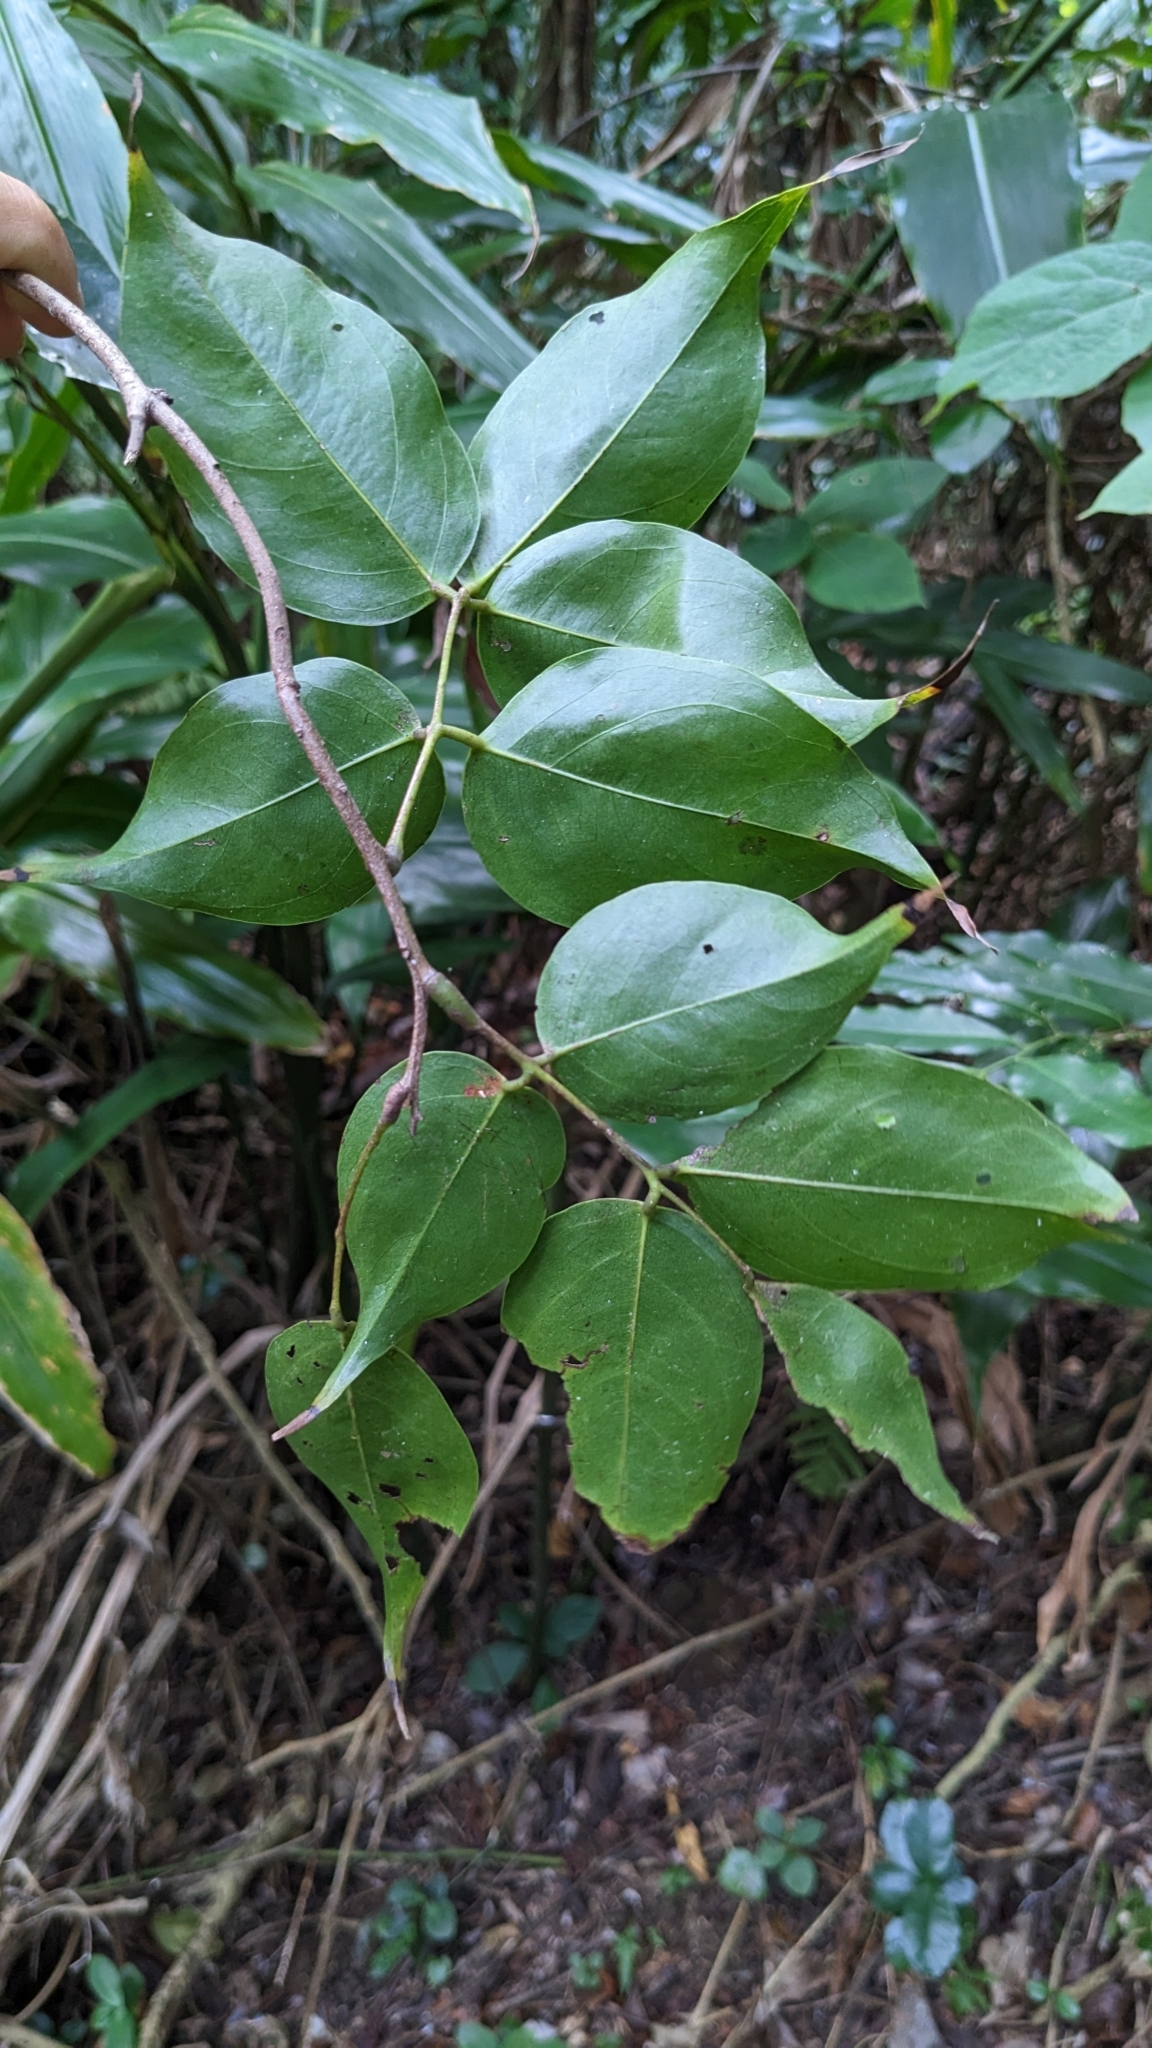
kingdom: Plantae
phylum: Tracheophyta
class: Magnoliopsida
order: Oxalidales
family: Connaraceae
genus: Rourea
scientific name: Rourea minor
